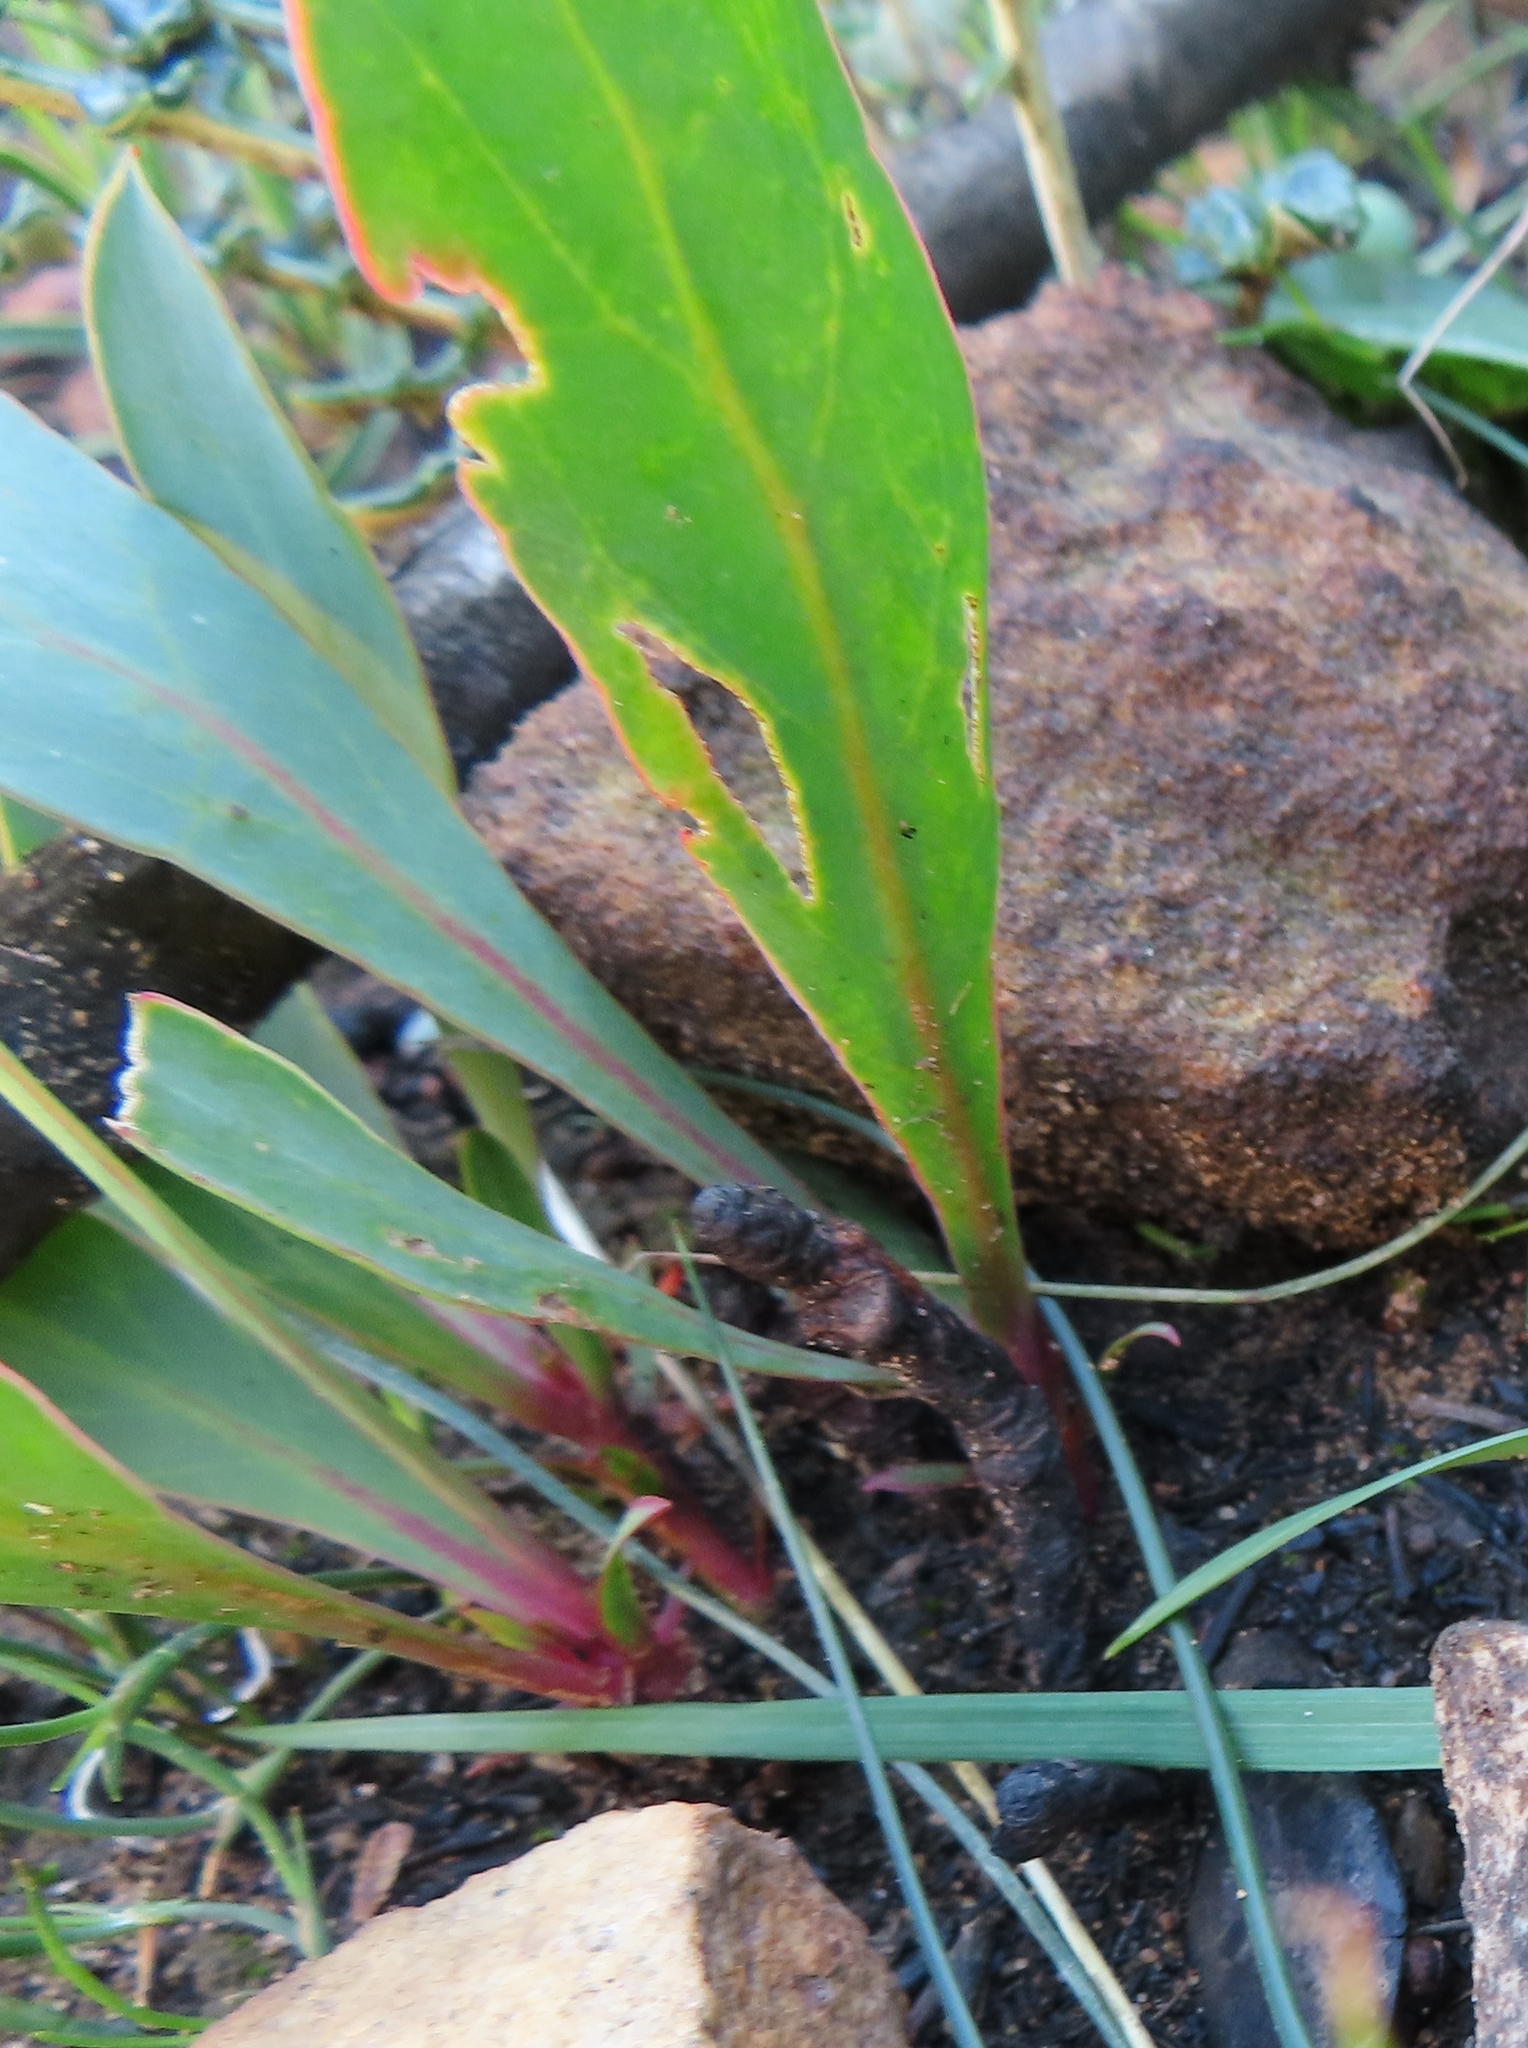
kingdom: Plantae
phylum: Tracheophyta
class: Magnoliopsida
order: Proteales
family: Proteaceae
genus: Protea
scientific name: Protea acaulos
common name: Common ground sugarbush
